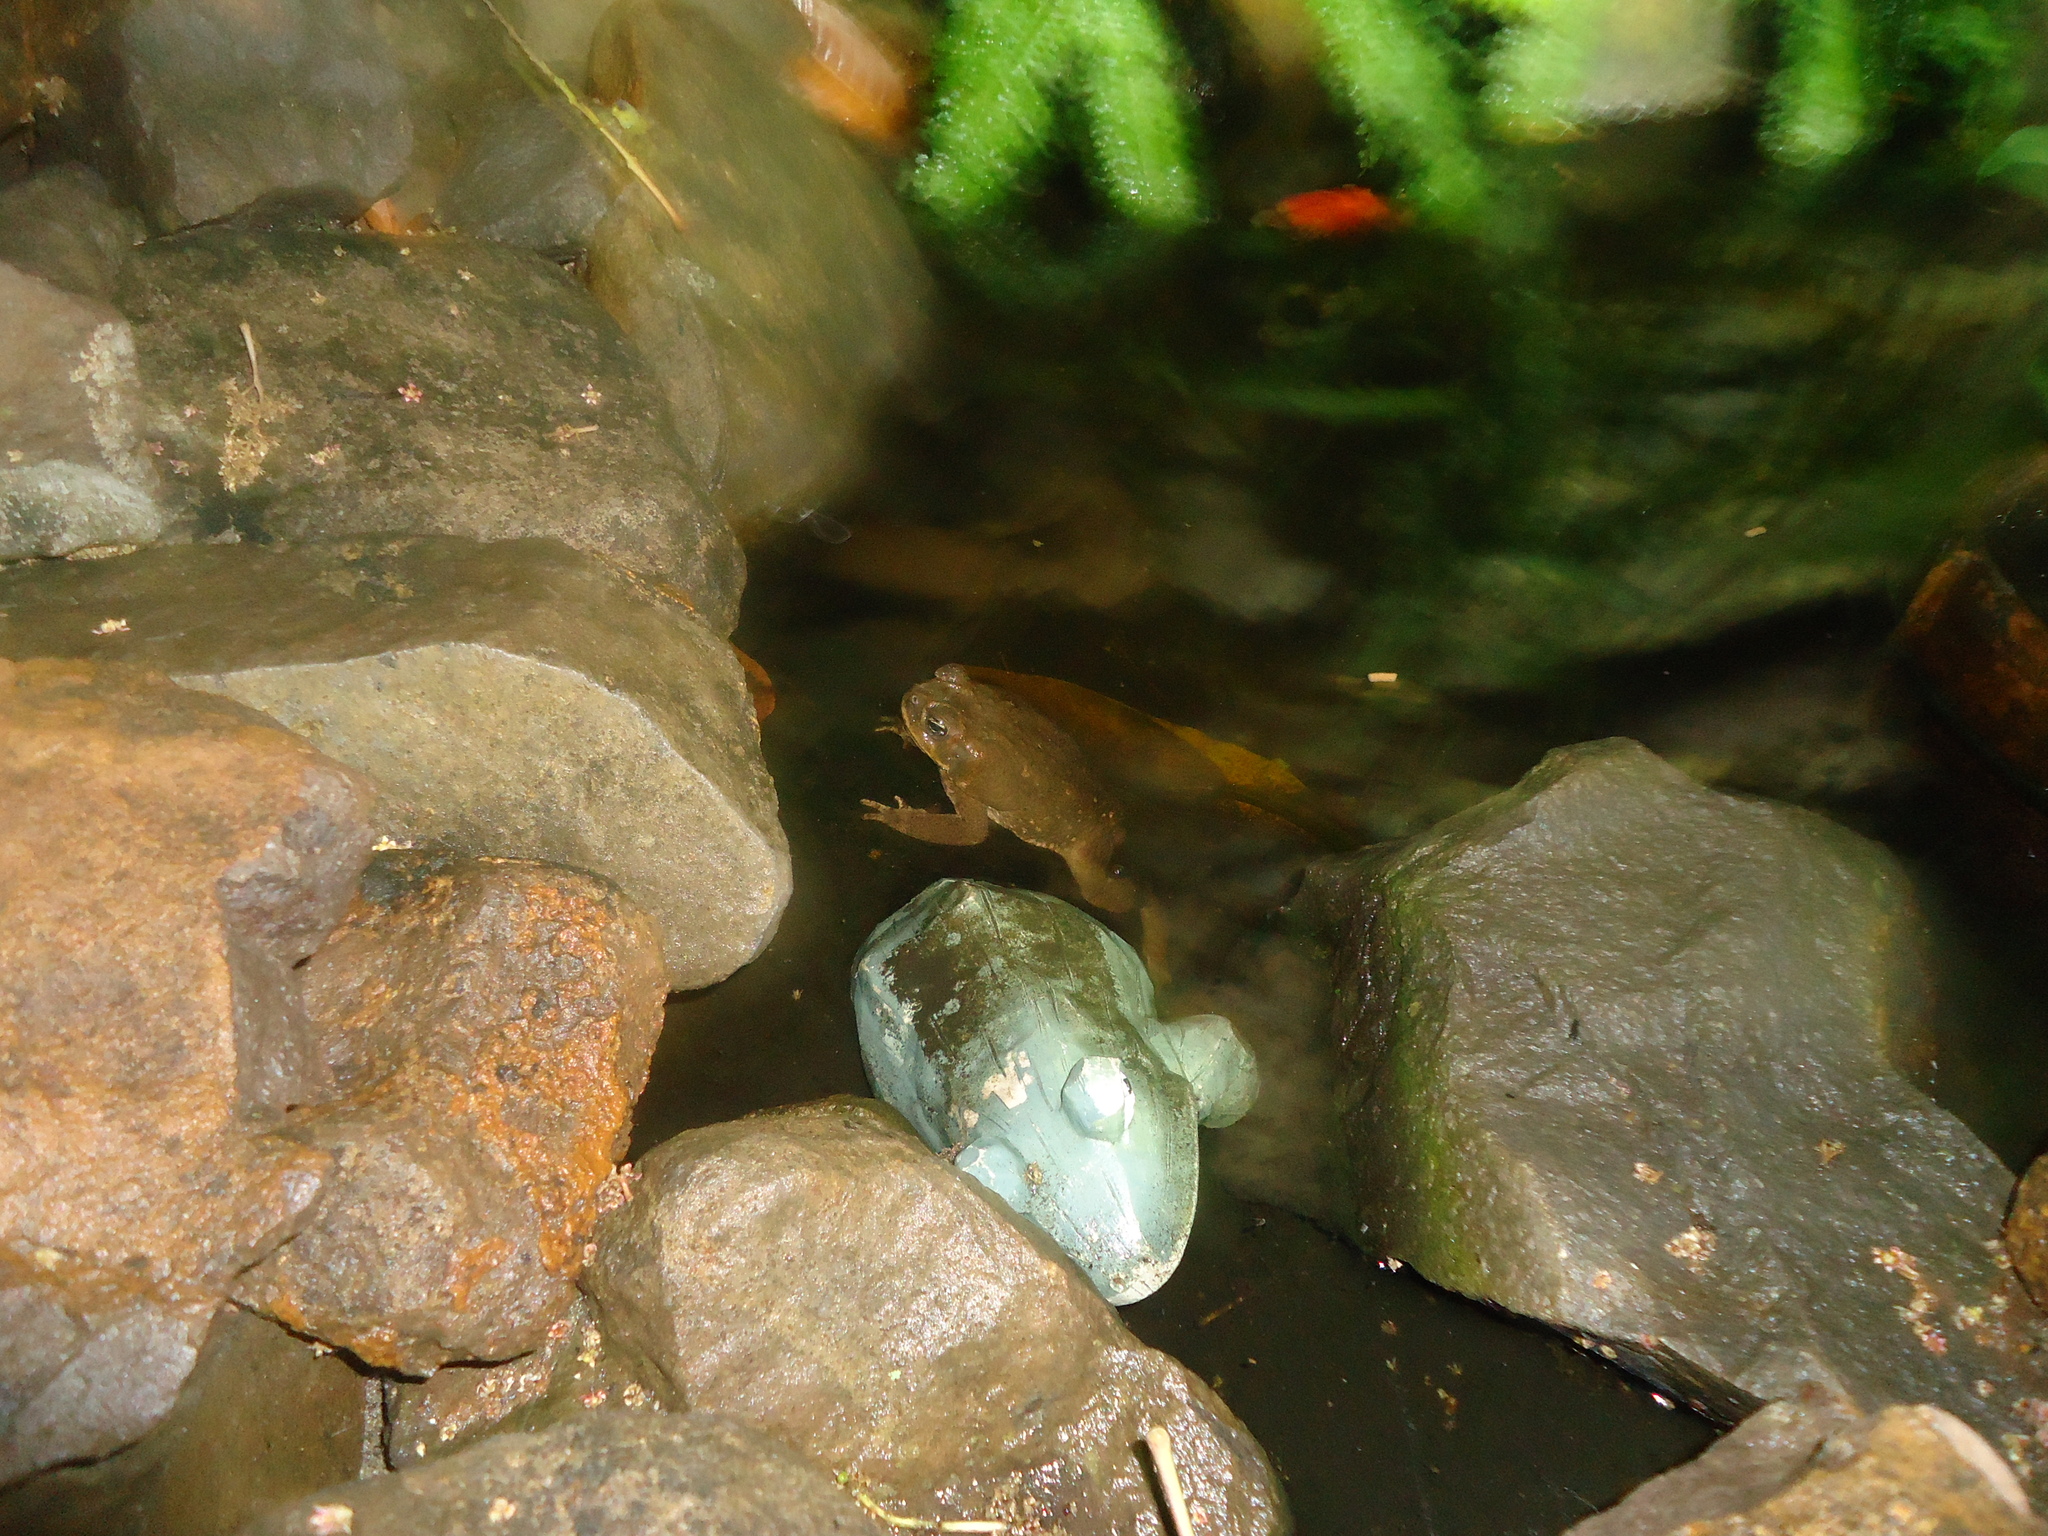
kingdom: Animalia
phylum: Chordata
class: Amphibia
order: Anura
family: Bufonidae
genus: Rhinella
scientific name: Rhinella horribilis
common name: Mesoamerican cane toad
